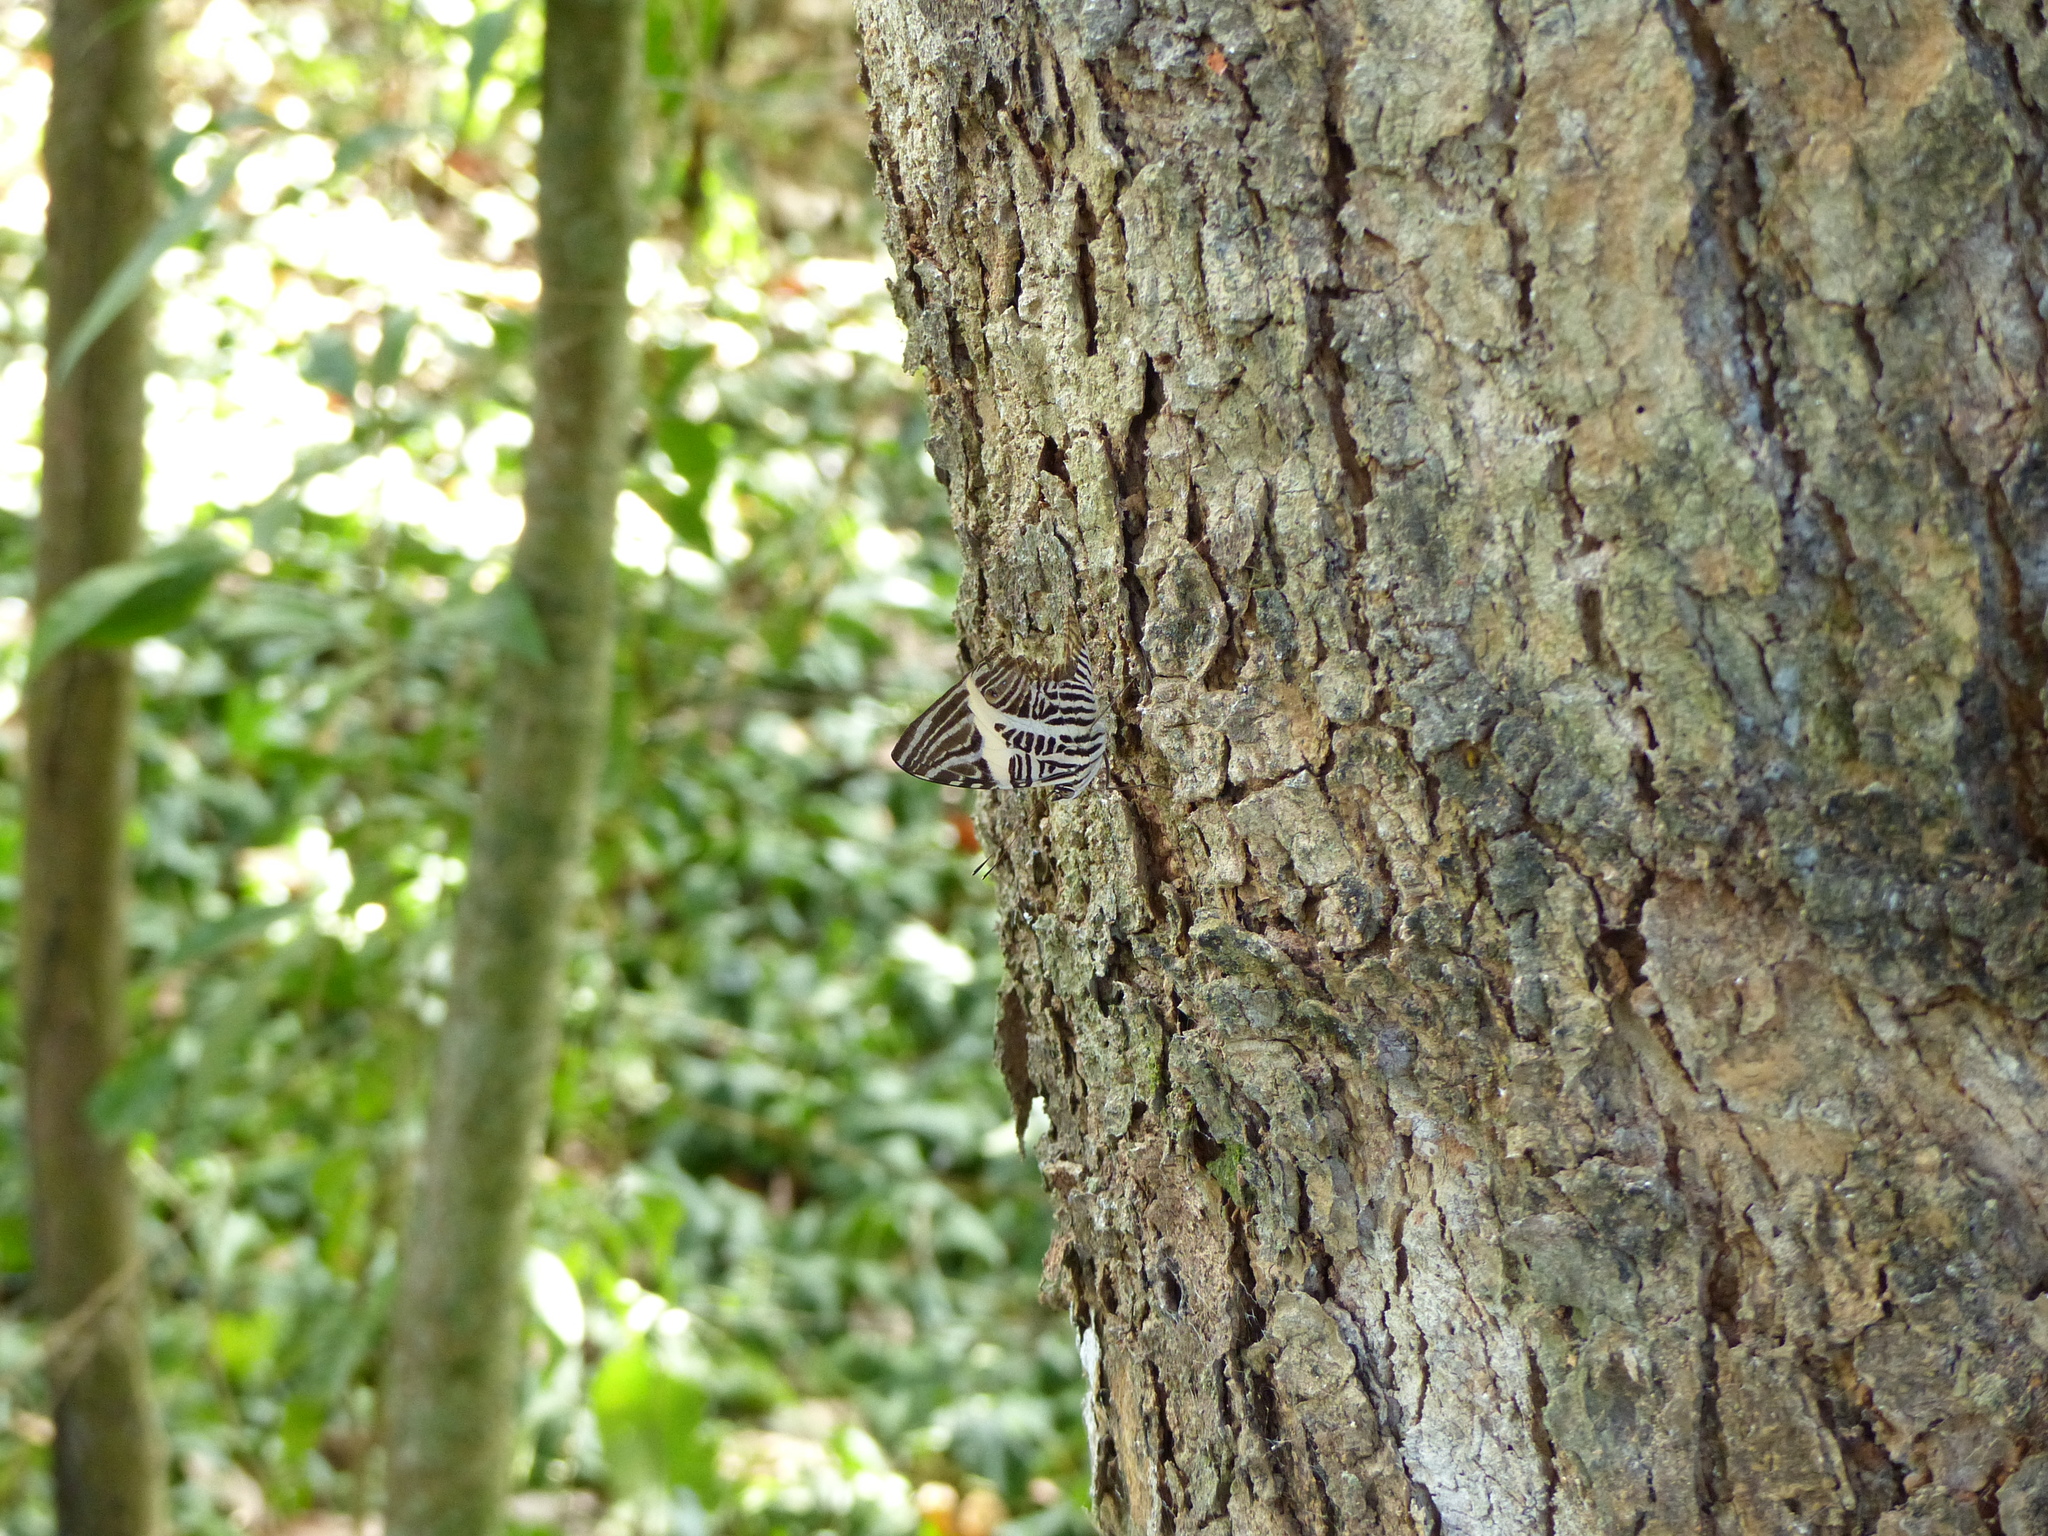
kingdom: Animalia
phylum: Arthropoda
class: Insecta
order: Lepidoptera
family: Nymphalidae
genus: Colobura
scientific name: Colobura dirce
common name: Dirce beauty
